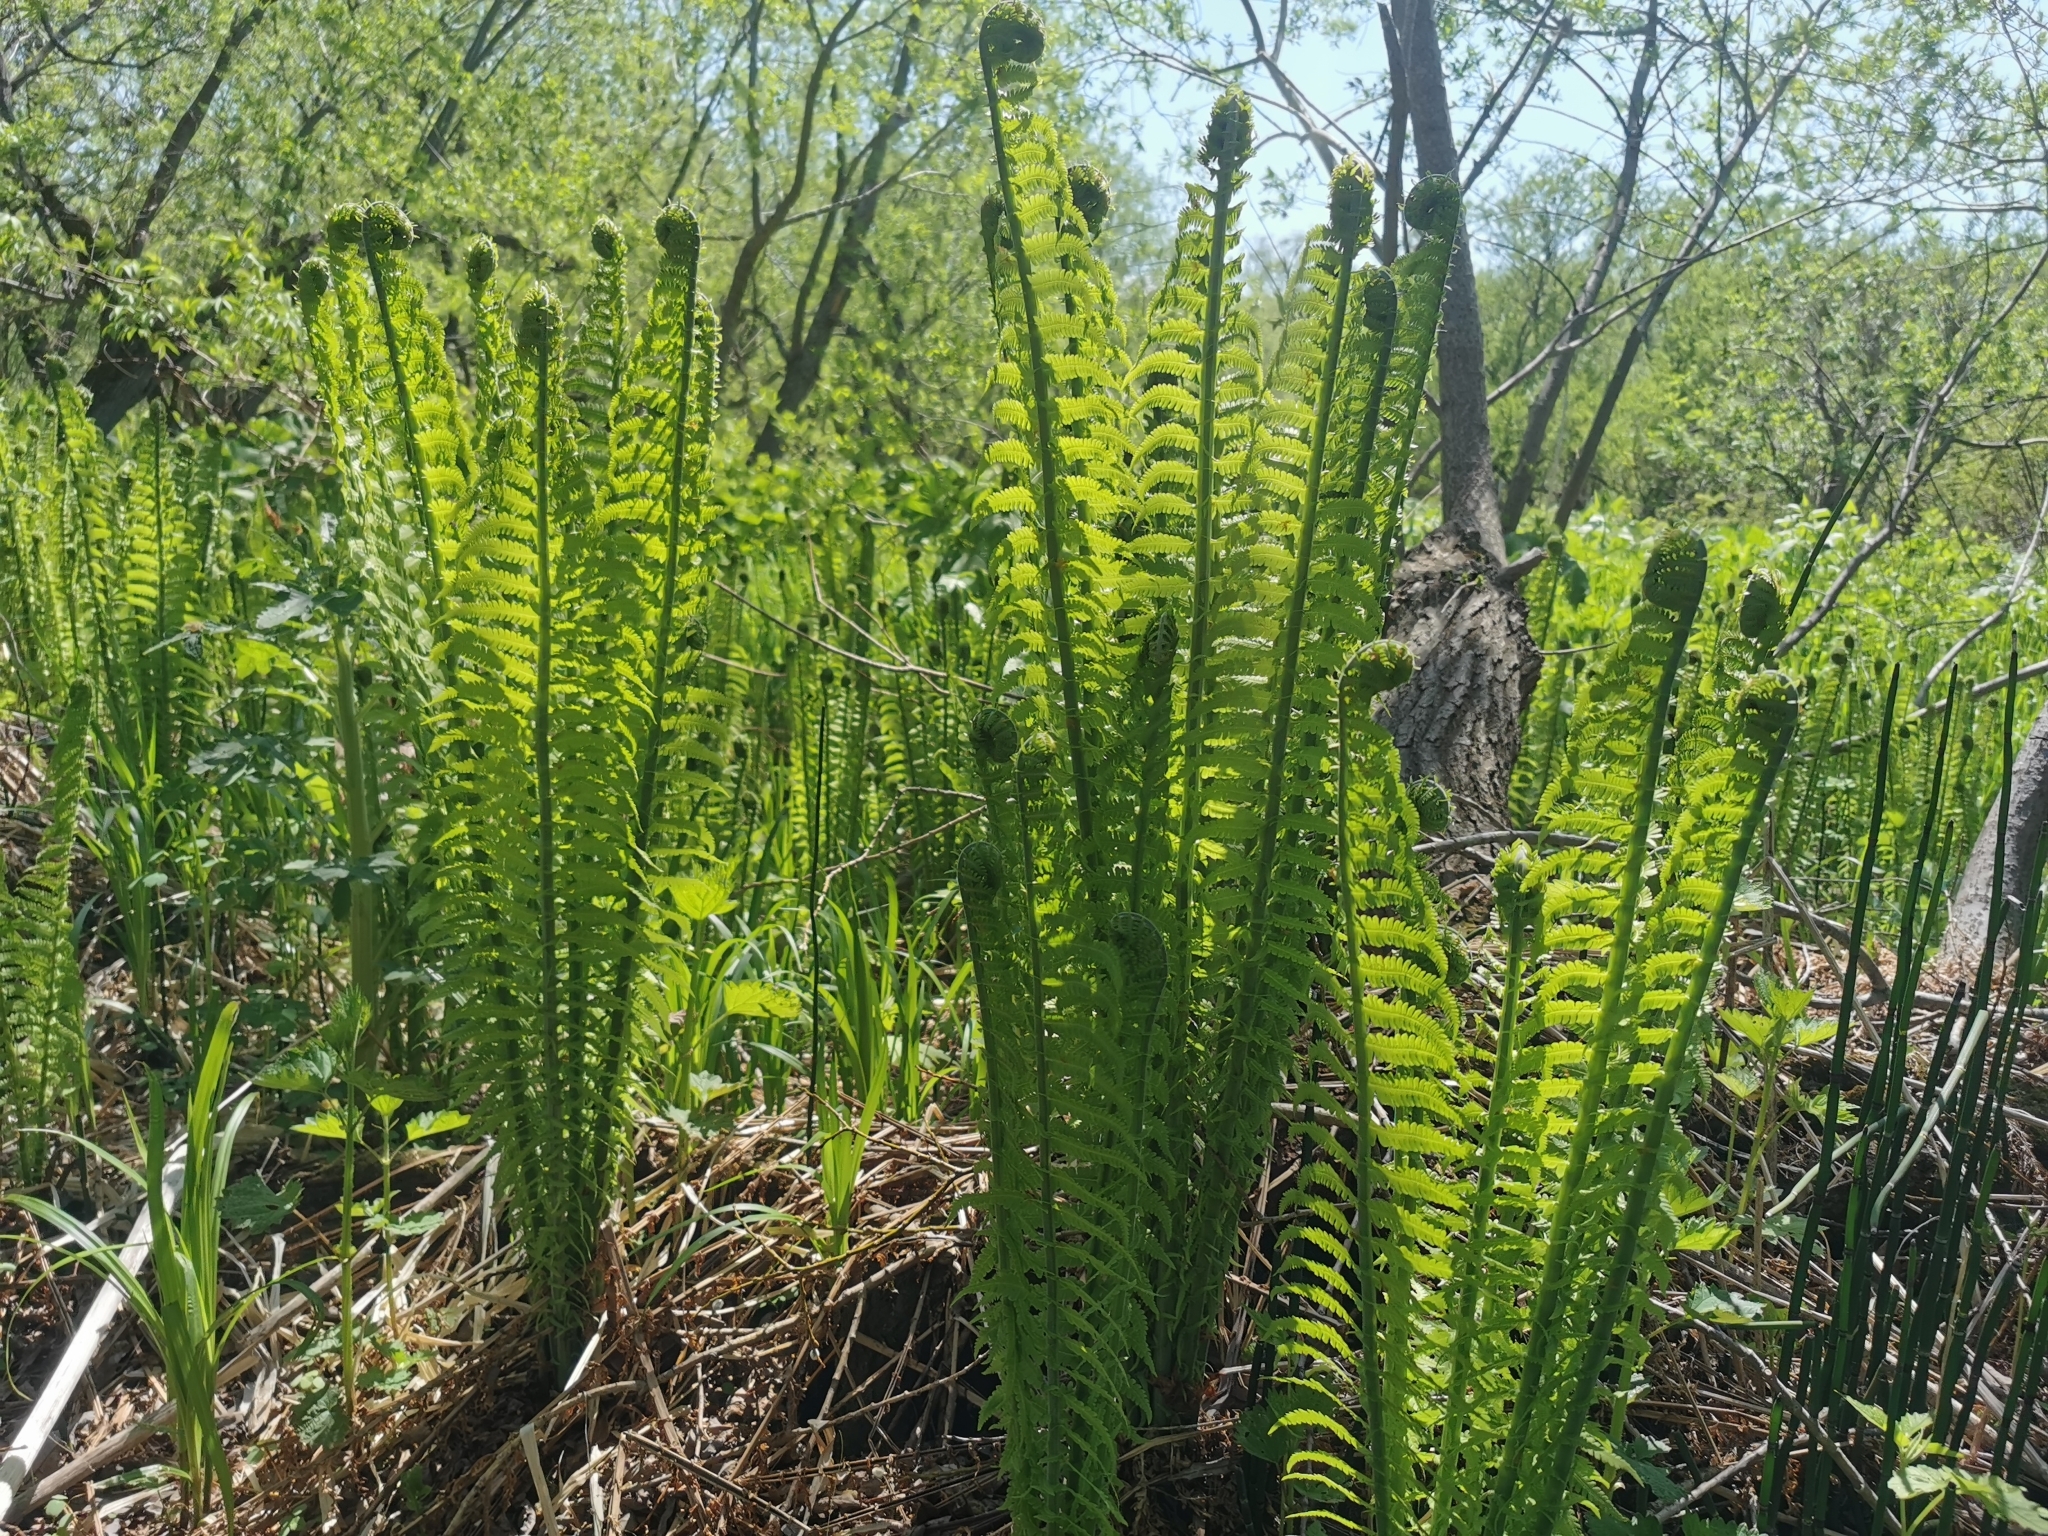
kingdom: Plantae
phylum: Tracheophyta
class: Polypodiopsida
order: Polypodiales
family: Onocleaceae
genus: Matteuccia
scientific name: Matteuccia struthiopteris
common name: Ostrich fern
